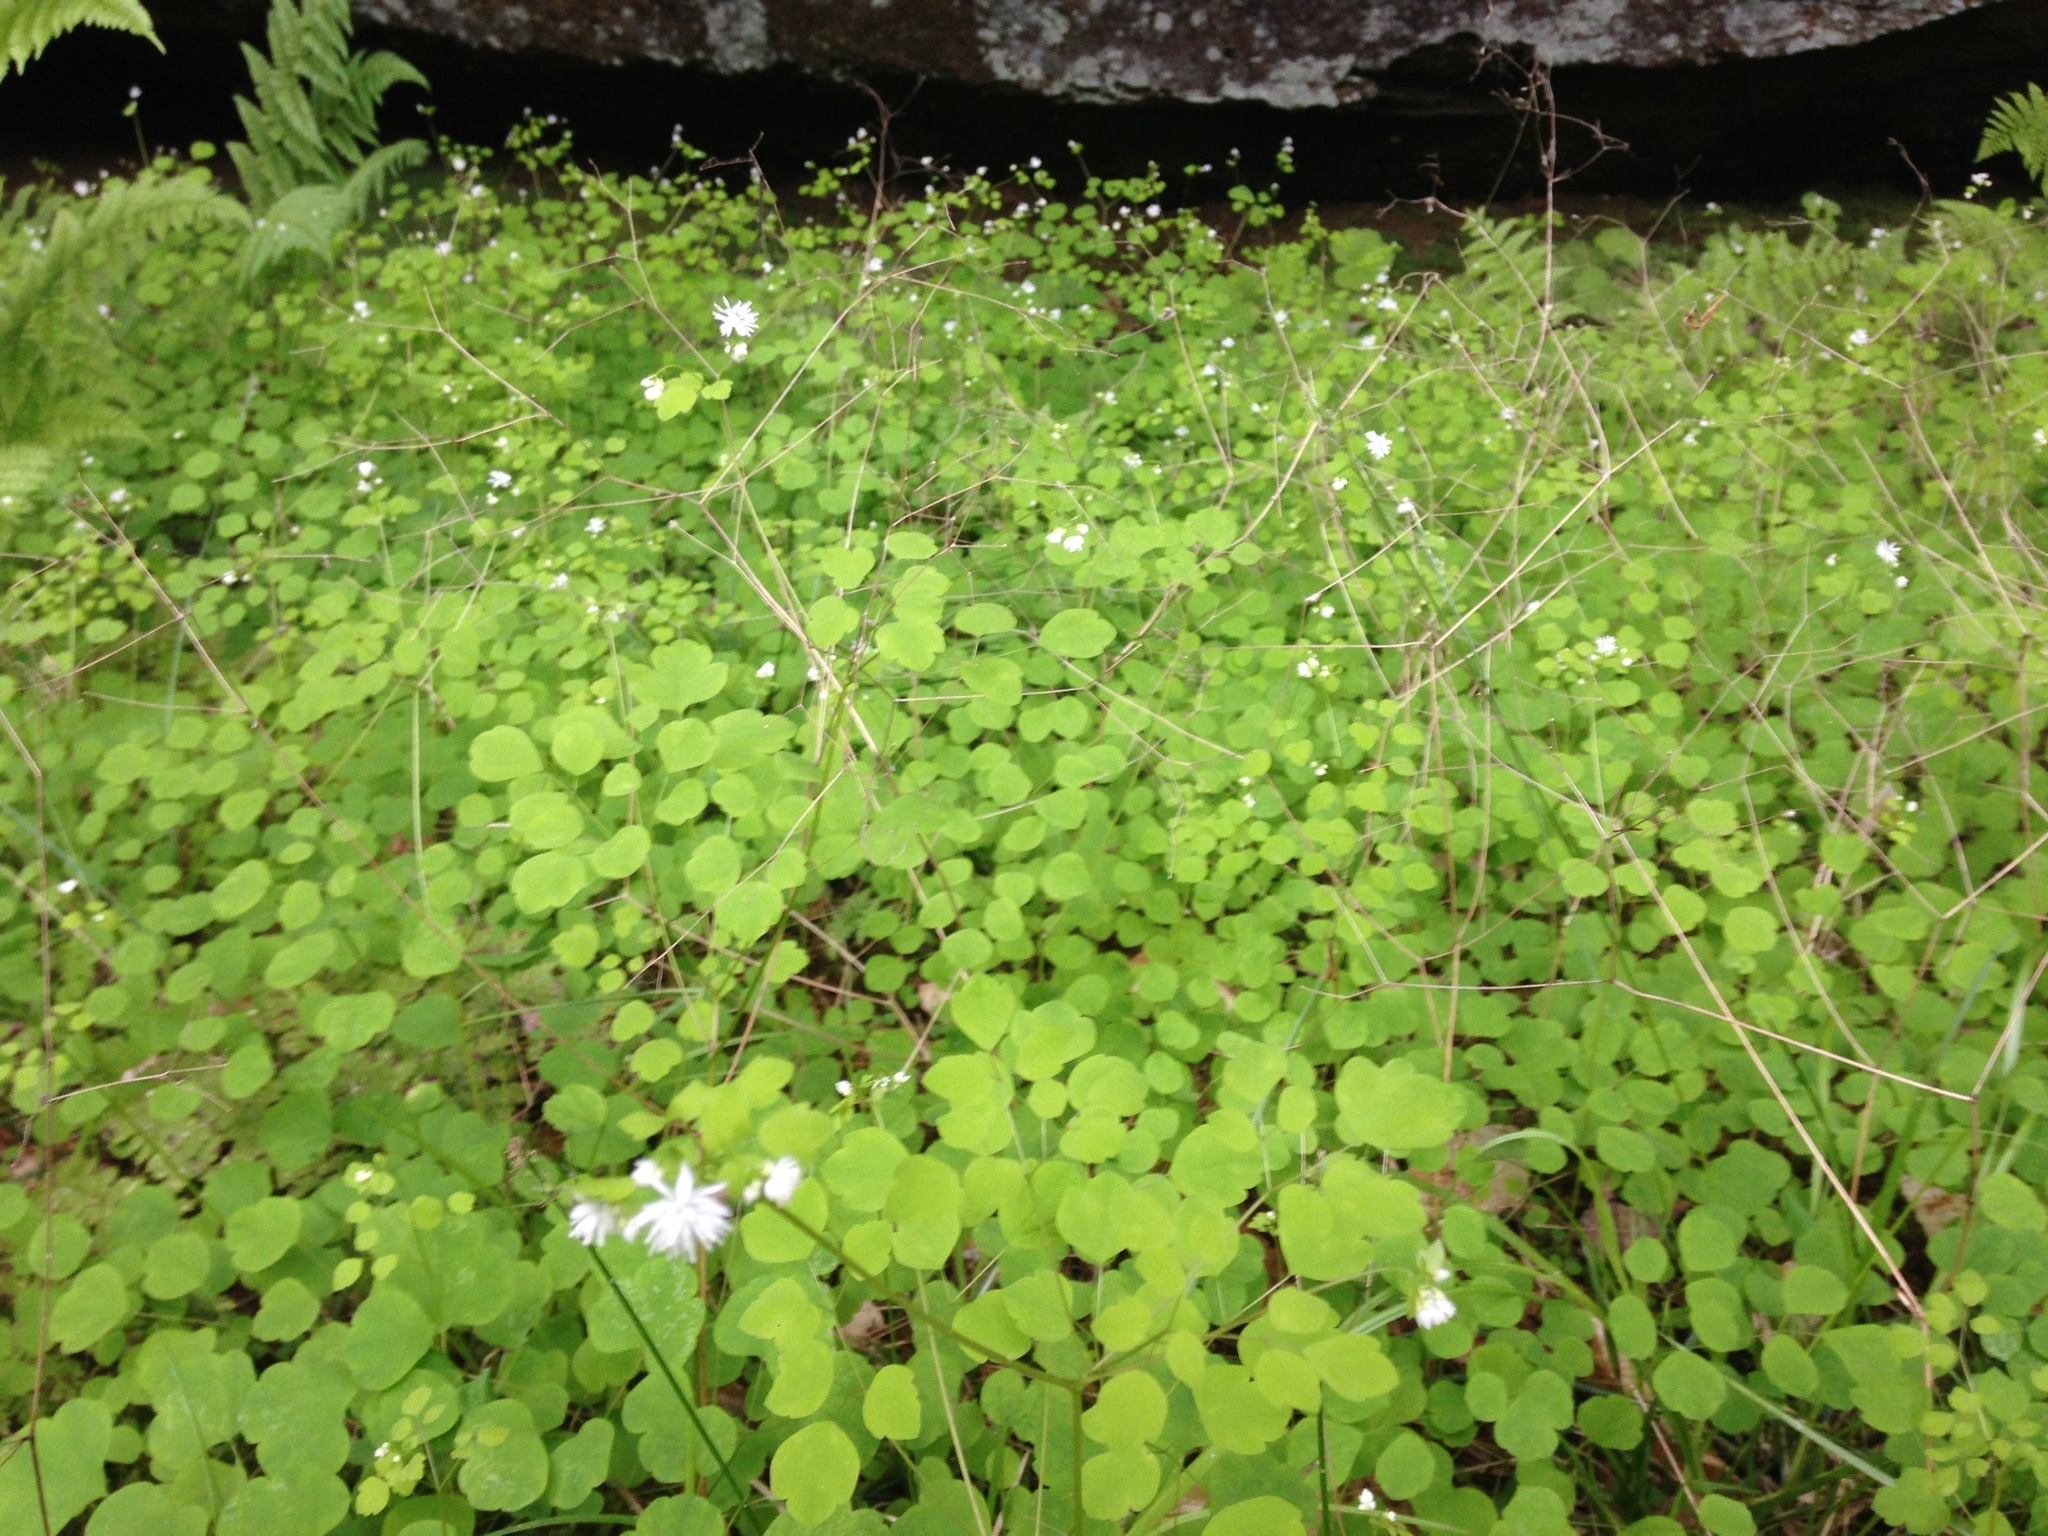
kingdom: Plantae
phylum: Tracheophyta
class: Magnoliopsida
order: Ranunculales
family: Ranunculaceae
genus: Thalictrum
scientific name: Thalictrum mirabile
